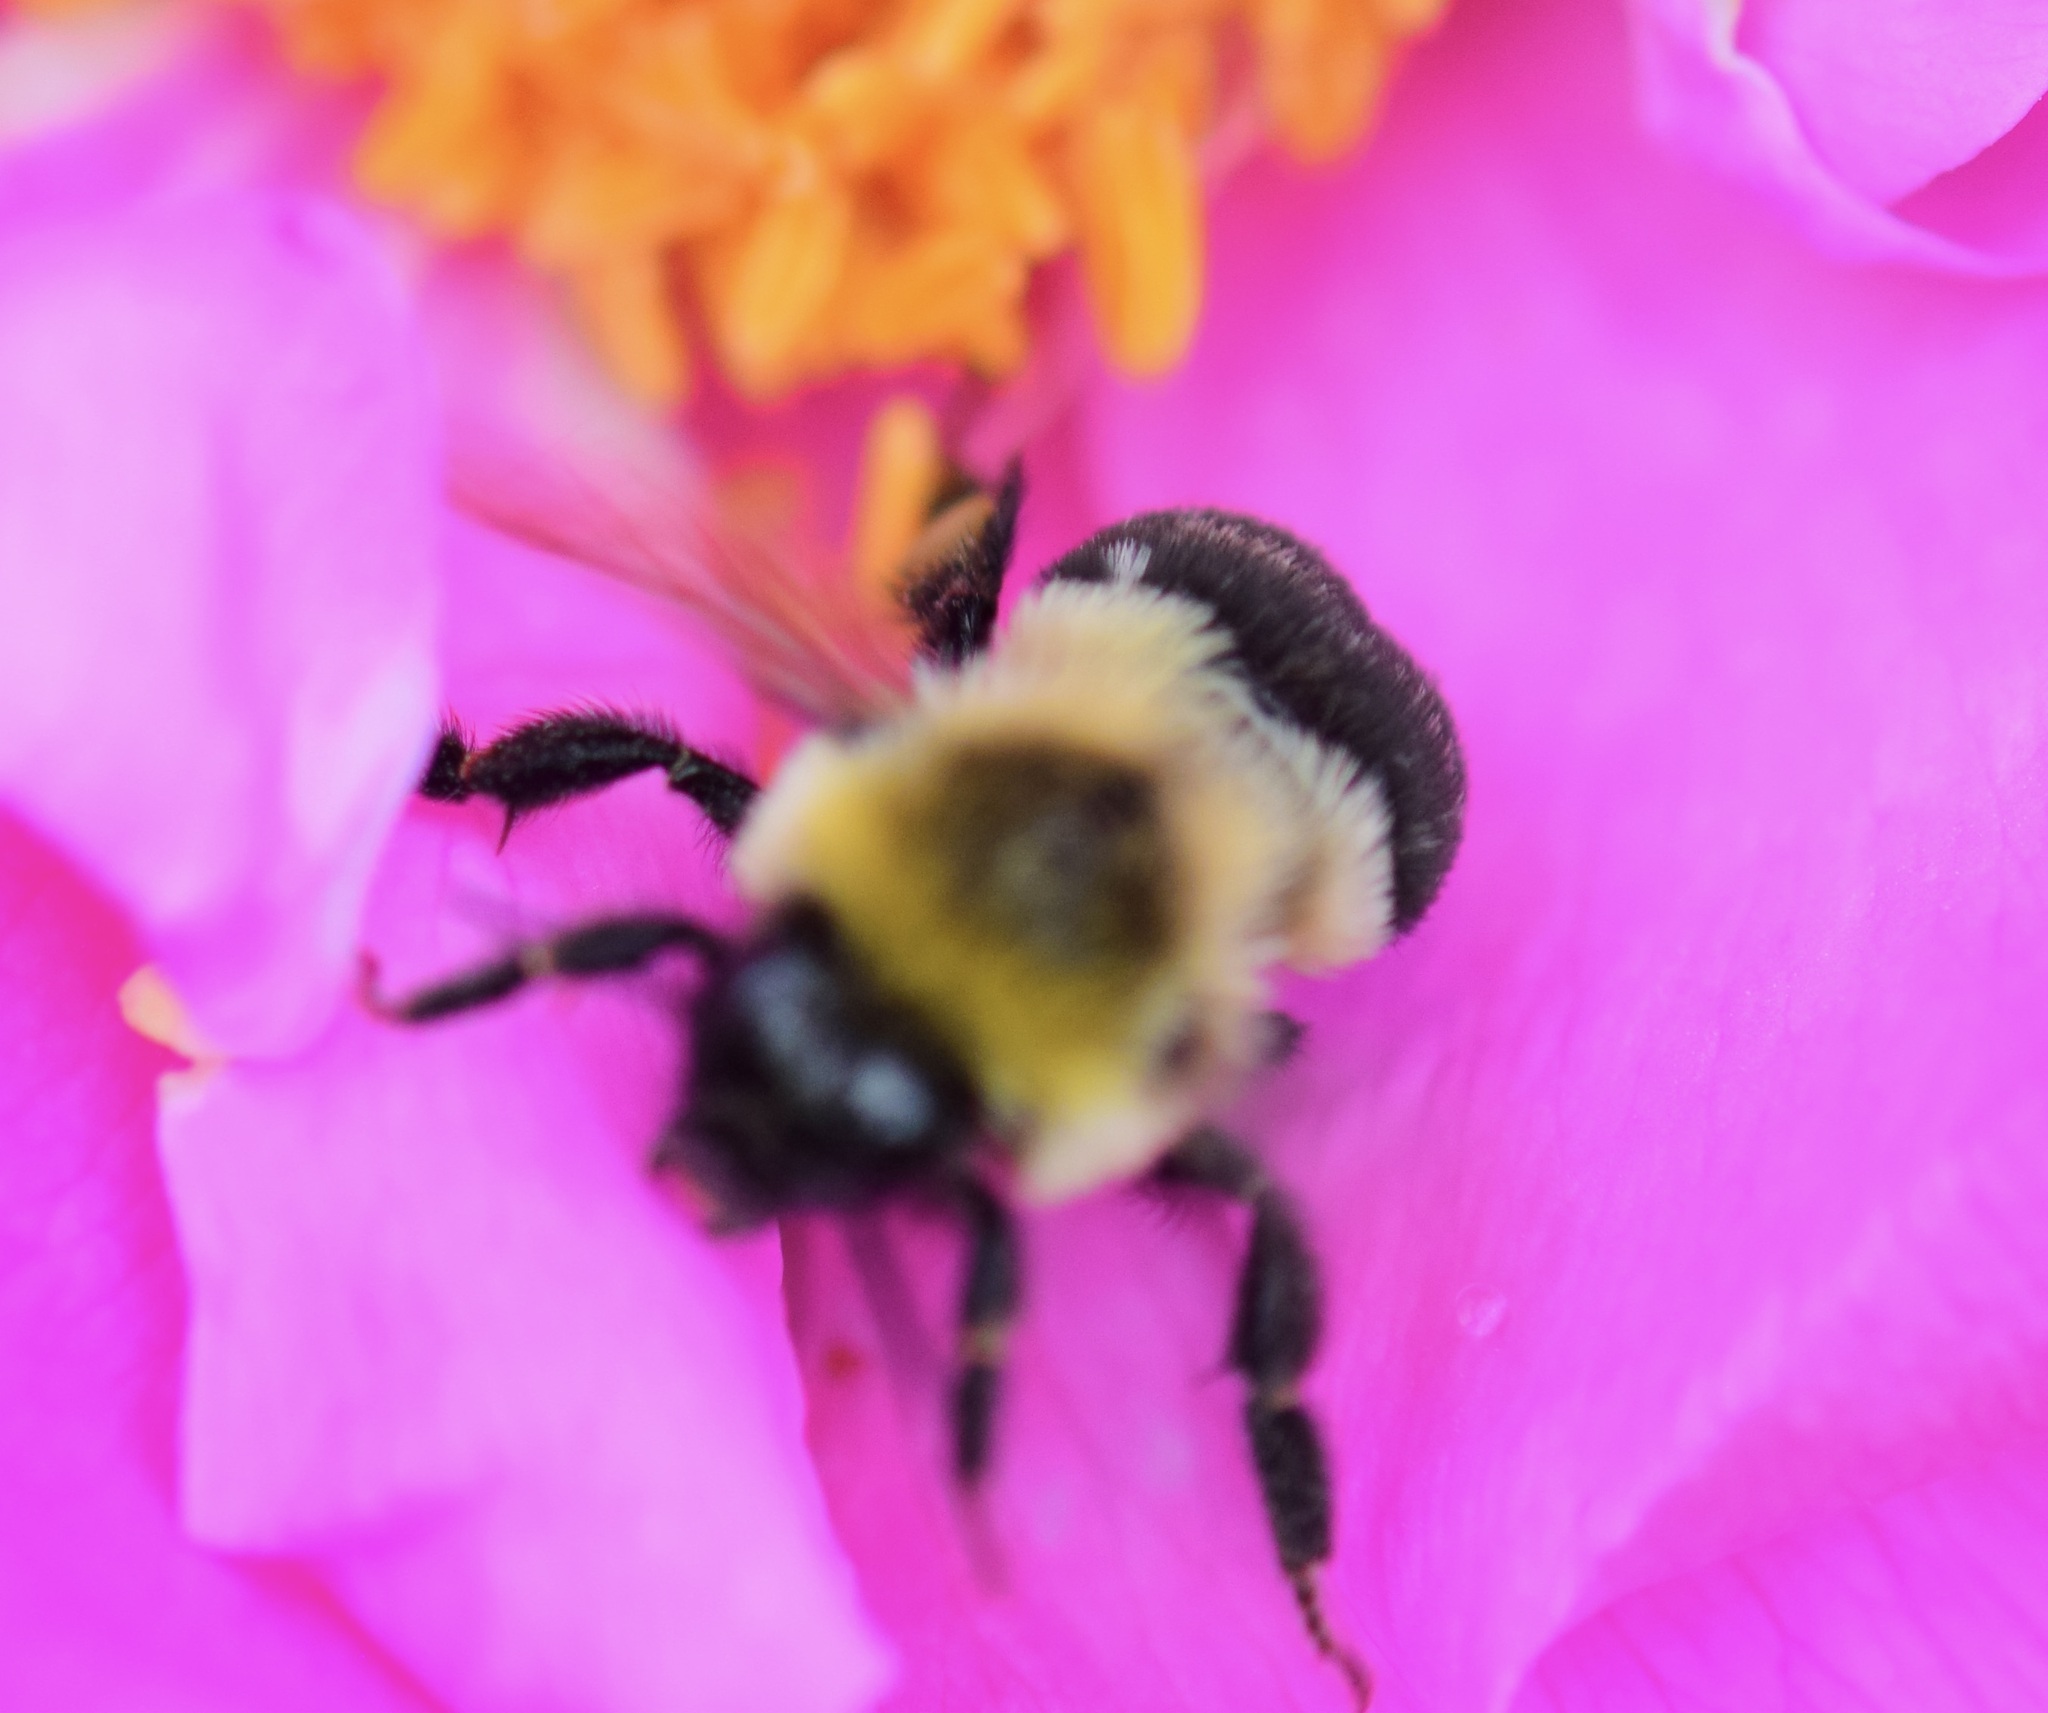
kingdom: Animalia
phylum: Arthropoda
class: Insecta
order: Hymenoptera
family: Apidae
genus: Bombus
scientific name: Bombus impatiens
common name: Common eastern bumble bee
